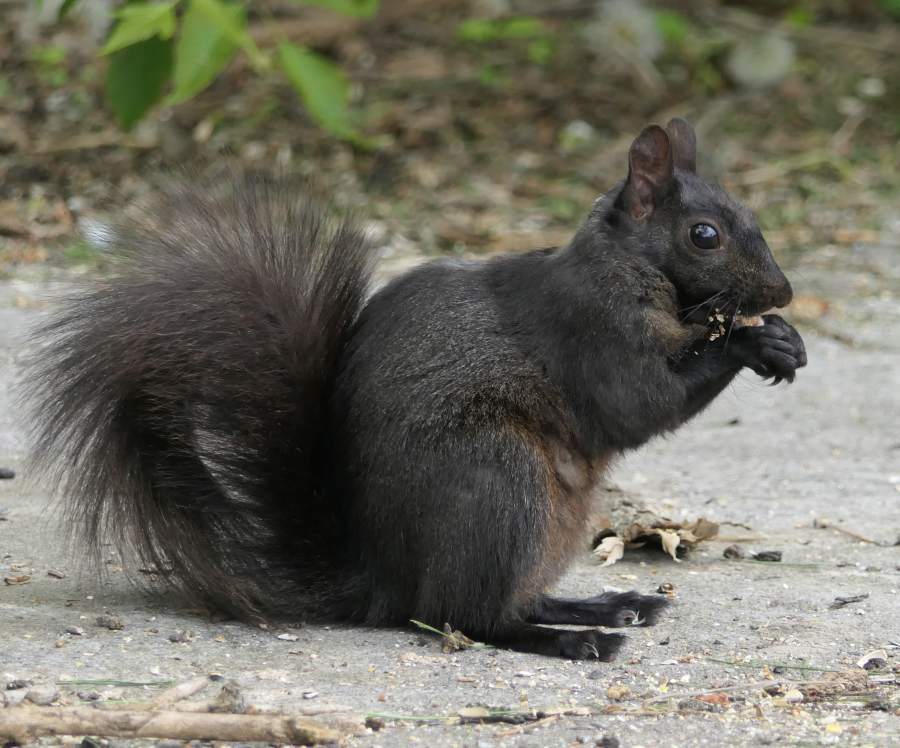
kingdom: Animalia
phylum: Chordata
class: Mammalia
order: Rodentia
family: Sciuridae
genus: Sciurus
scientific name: Sciurus carolinensis
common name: Eastern gray squirrel
